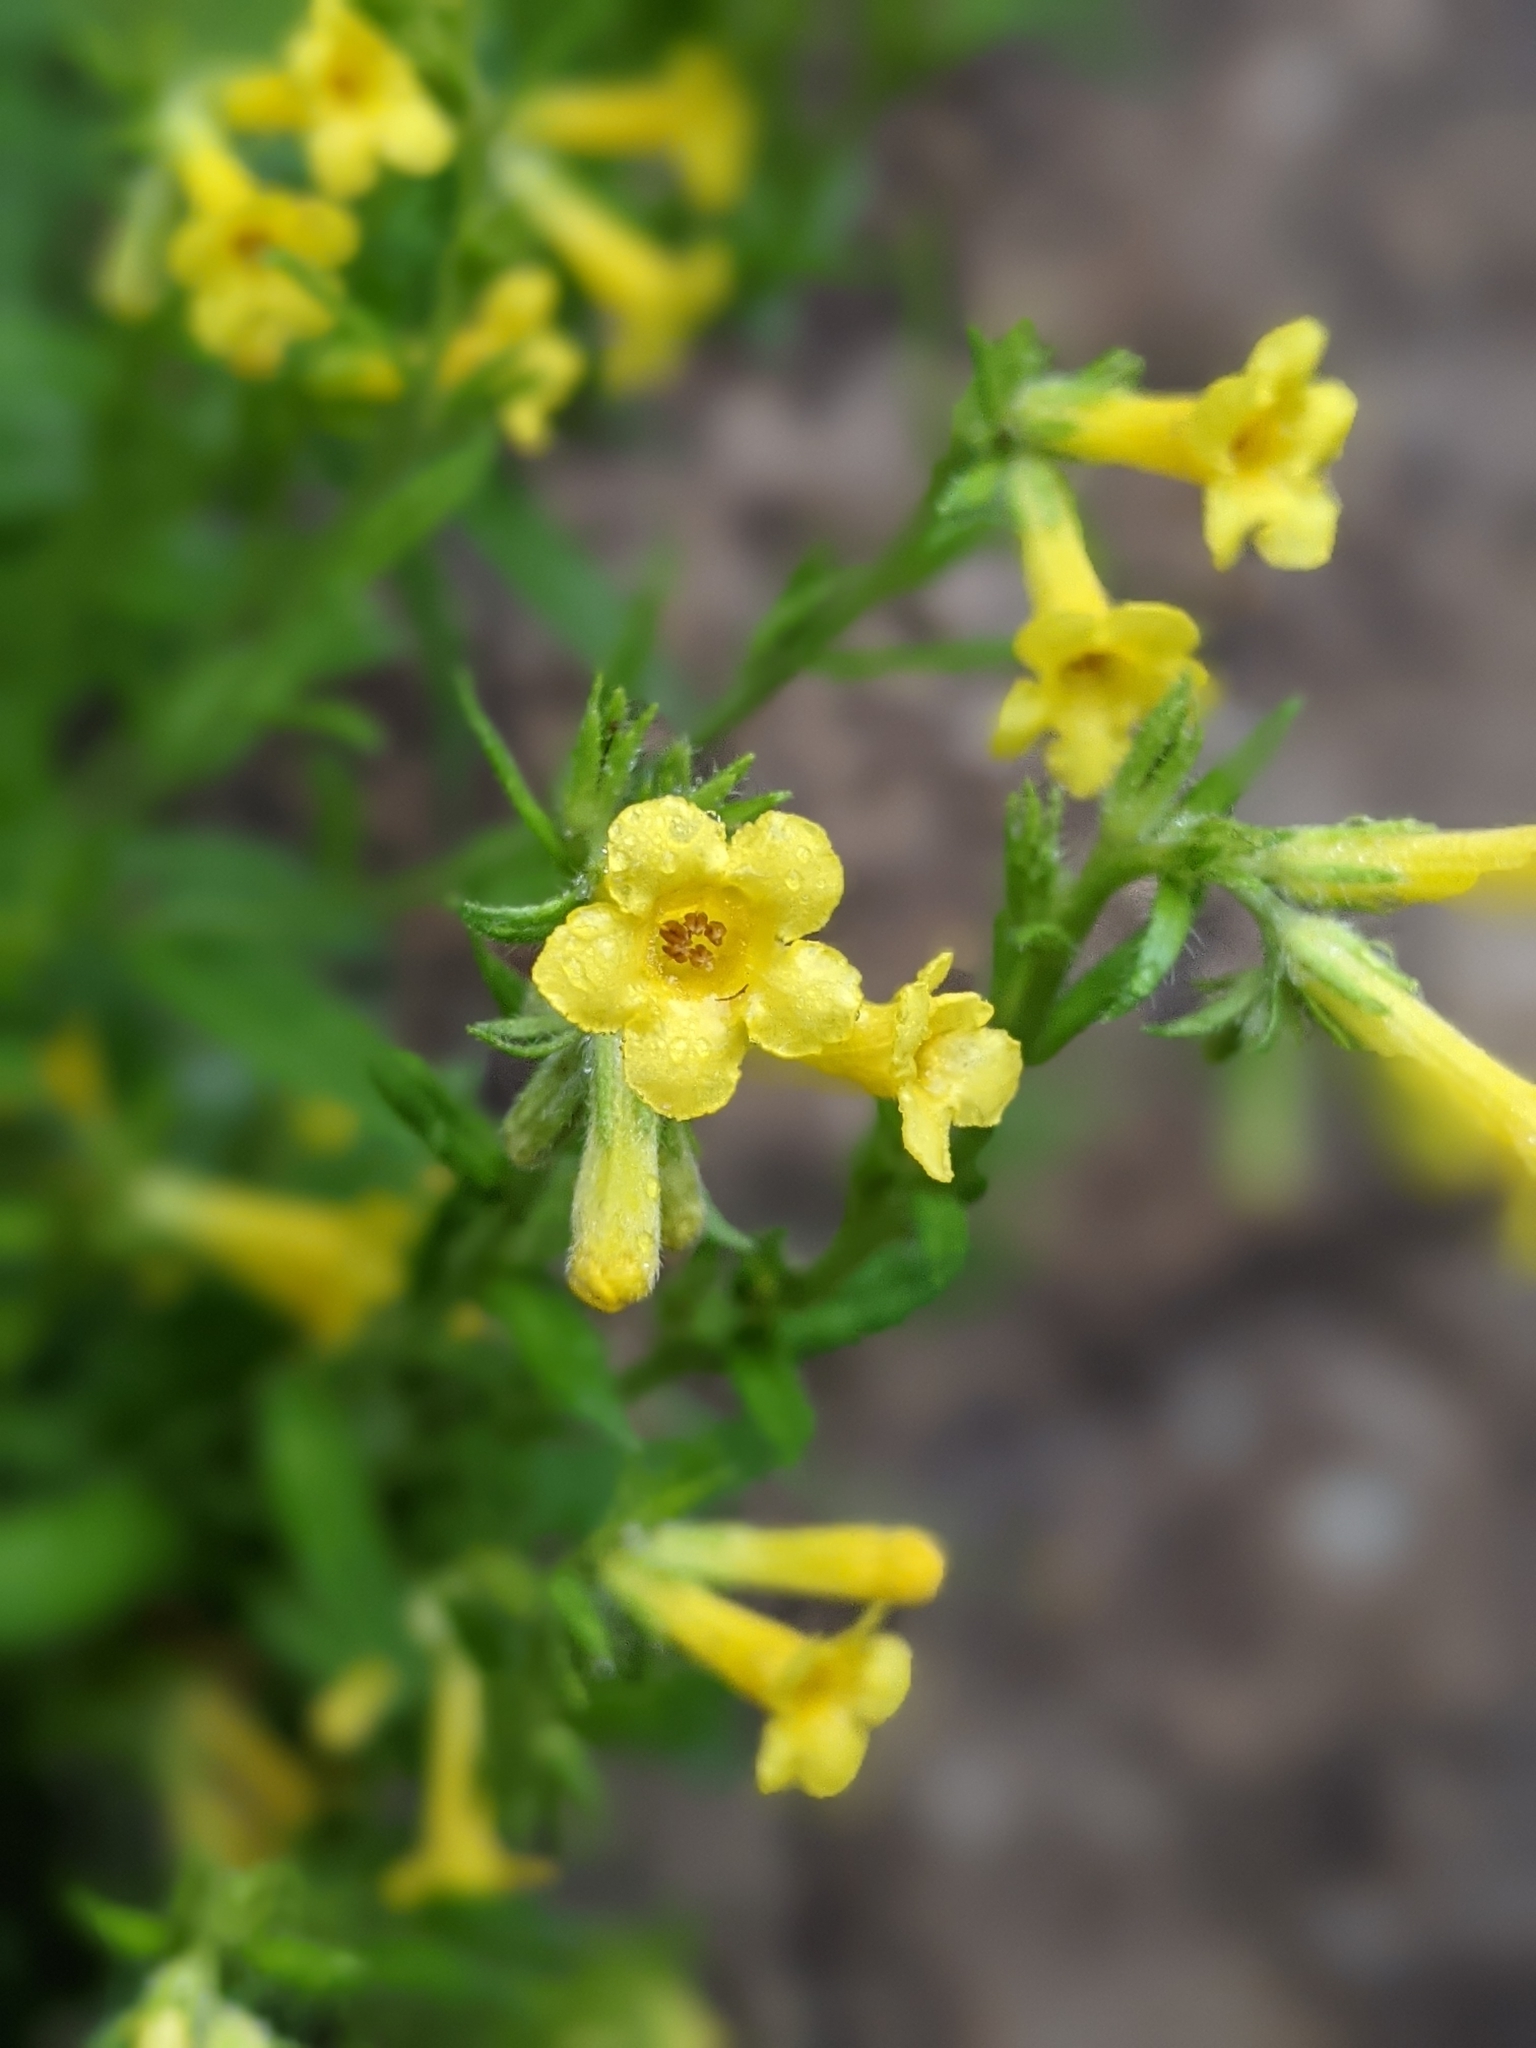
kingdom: Plantae
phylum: Tracheophyta
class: Magnoliopsida
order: Boraginales
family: Boraginaceae
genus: Lithospermum
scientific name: Lithospermum multiflorum
